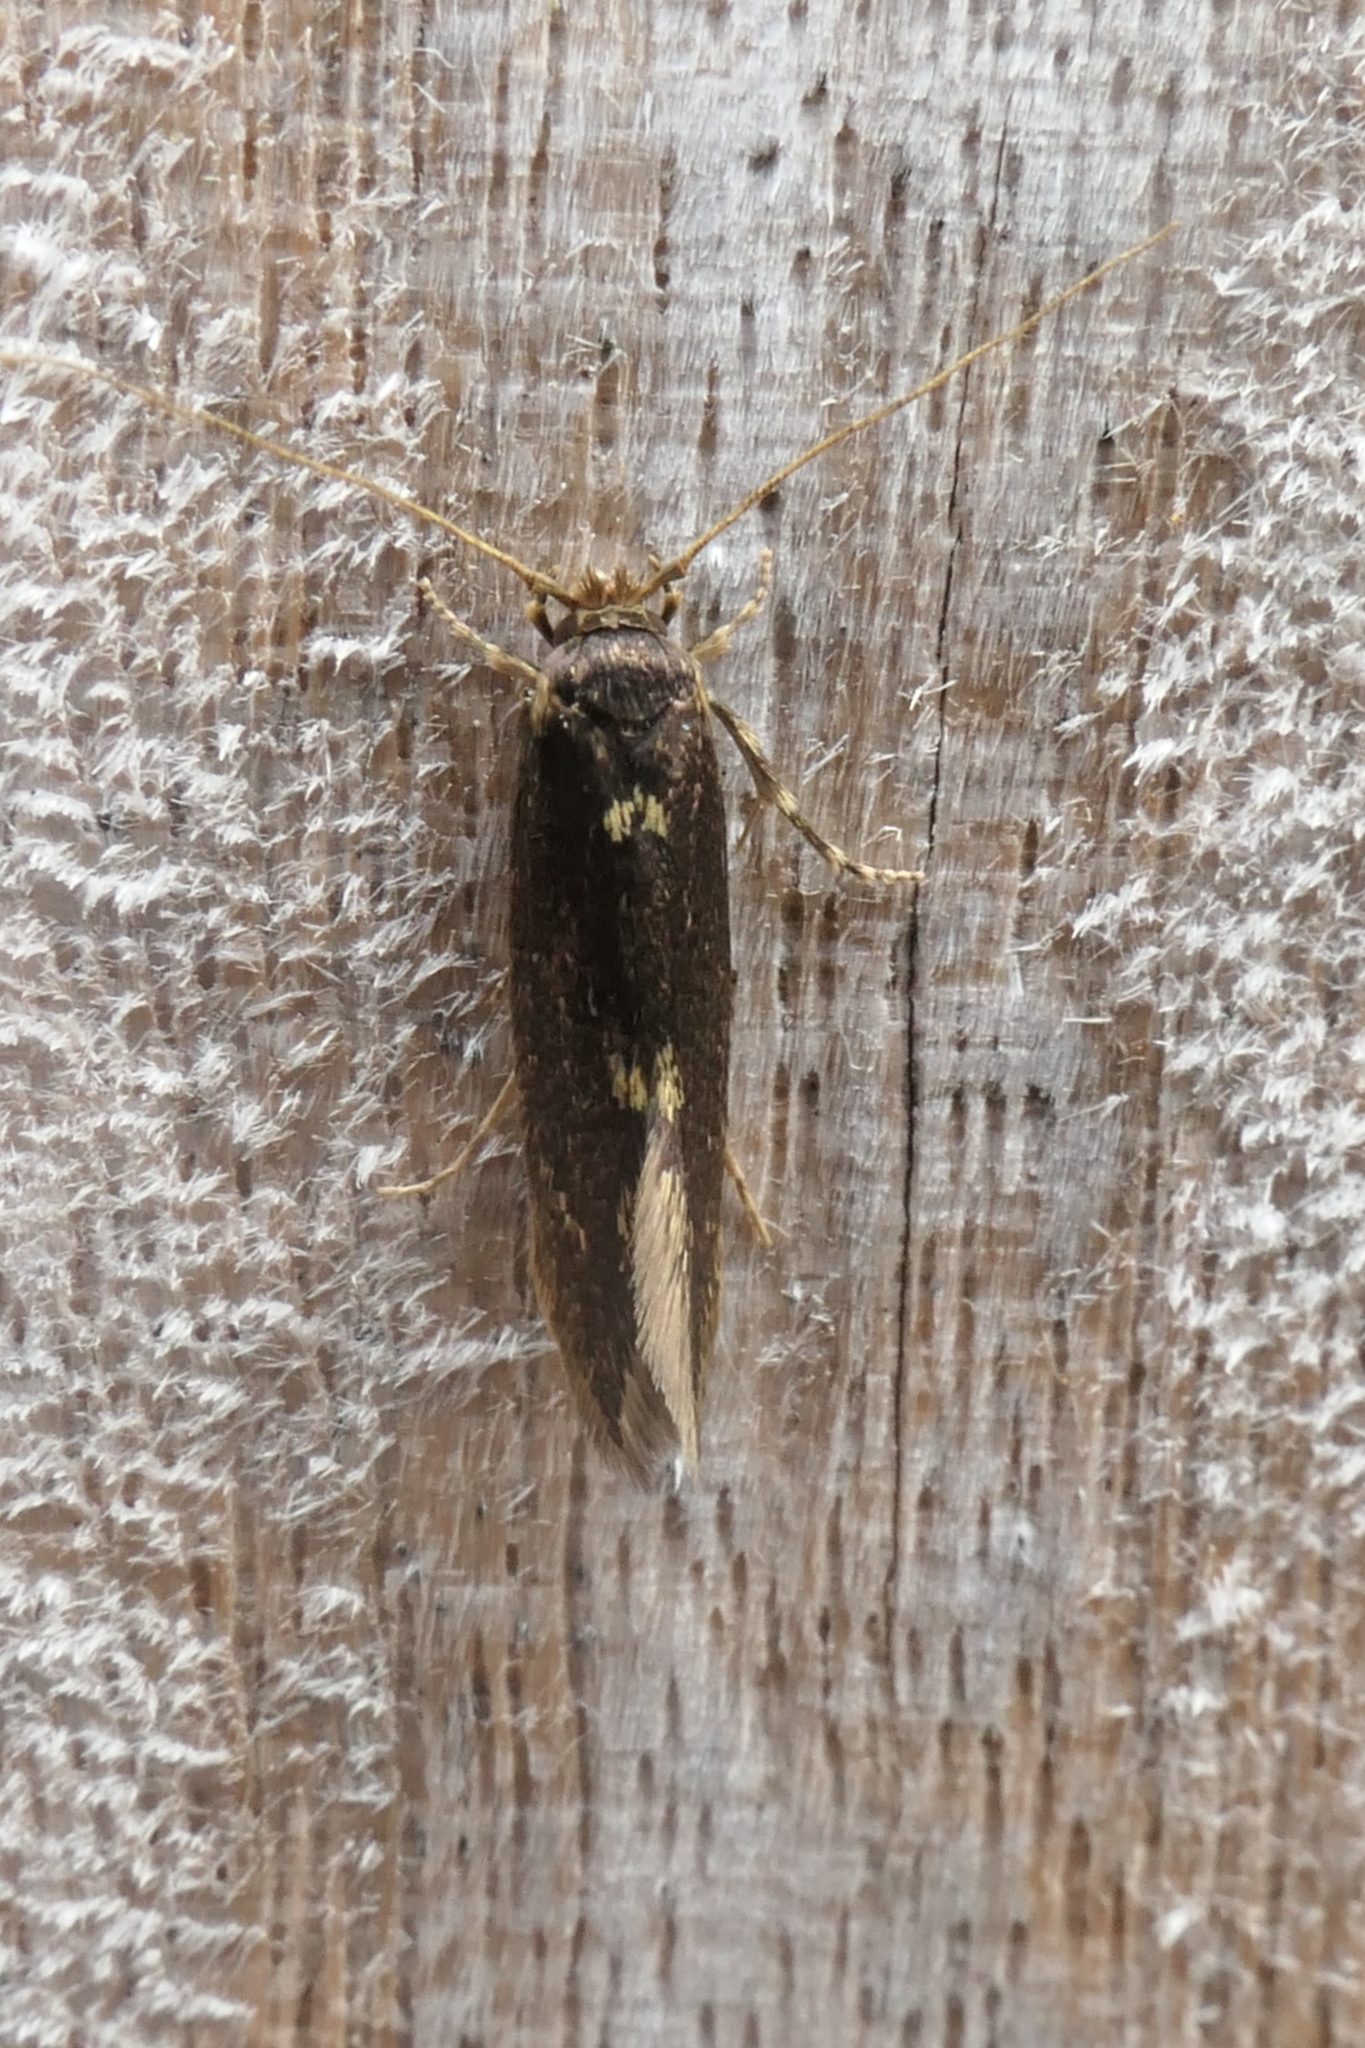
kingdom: Animalia
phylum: Arthropoda
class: Insecta
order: Lepidoptera
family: Tineidae
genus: Opogona
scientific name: Opogona omoscopa
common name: Moth
